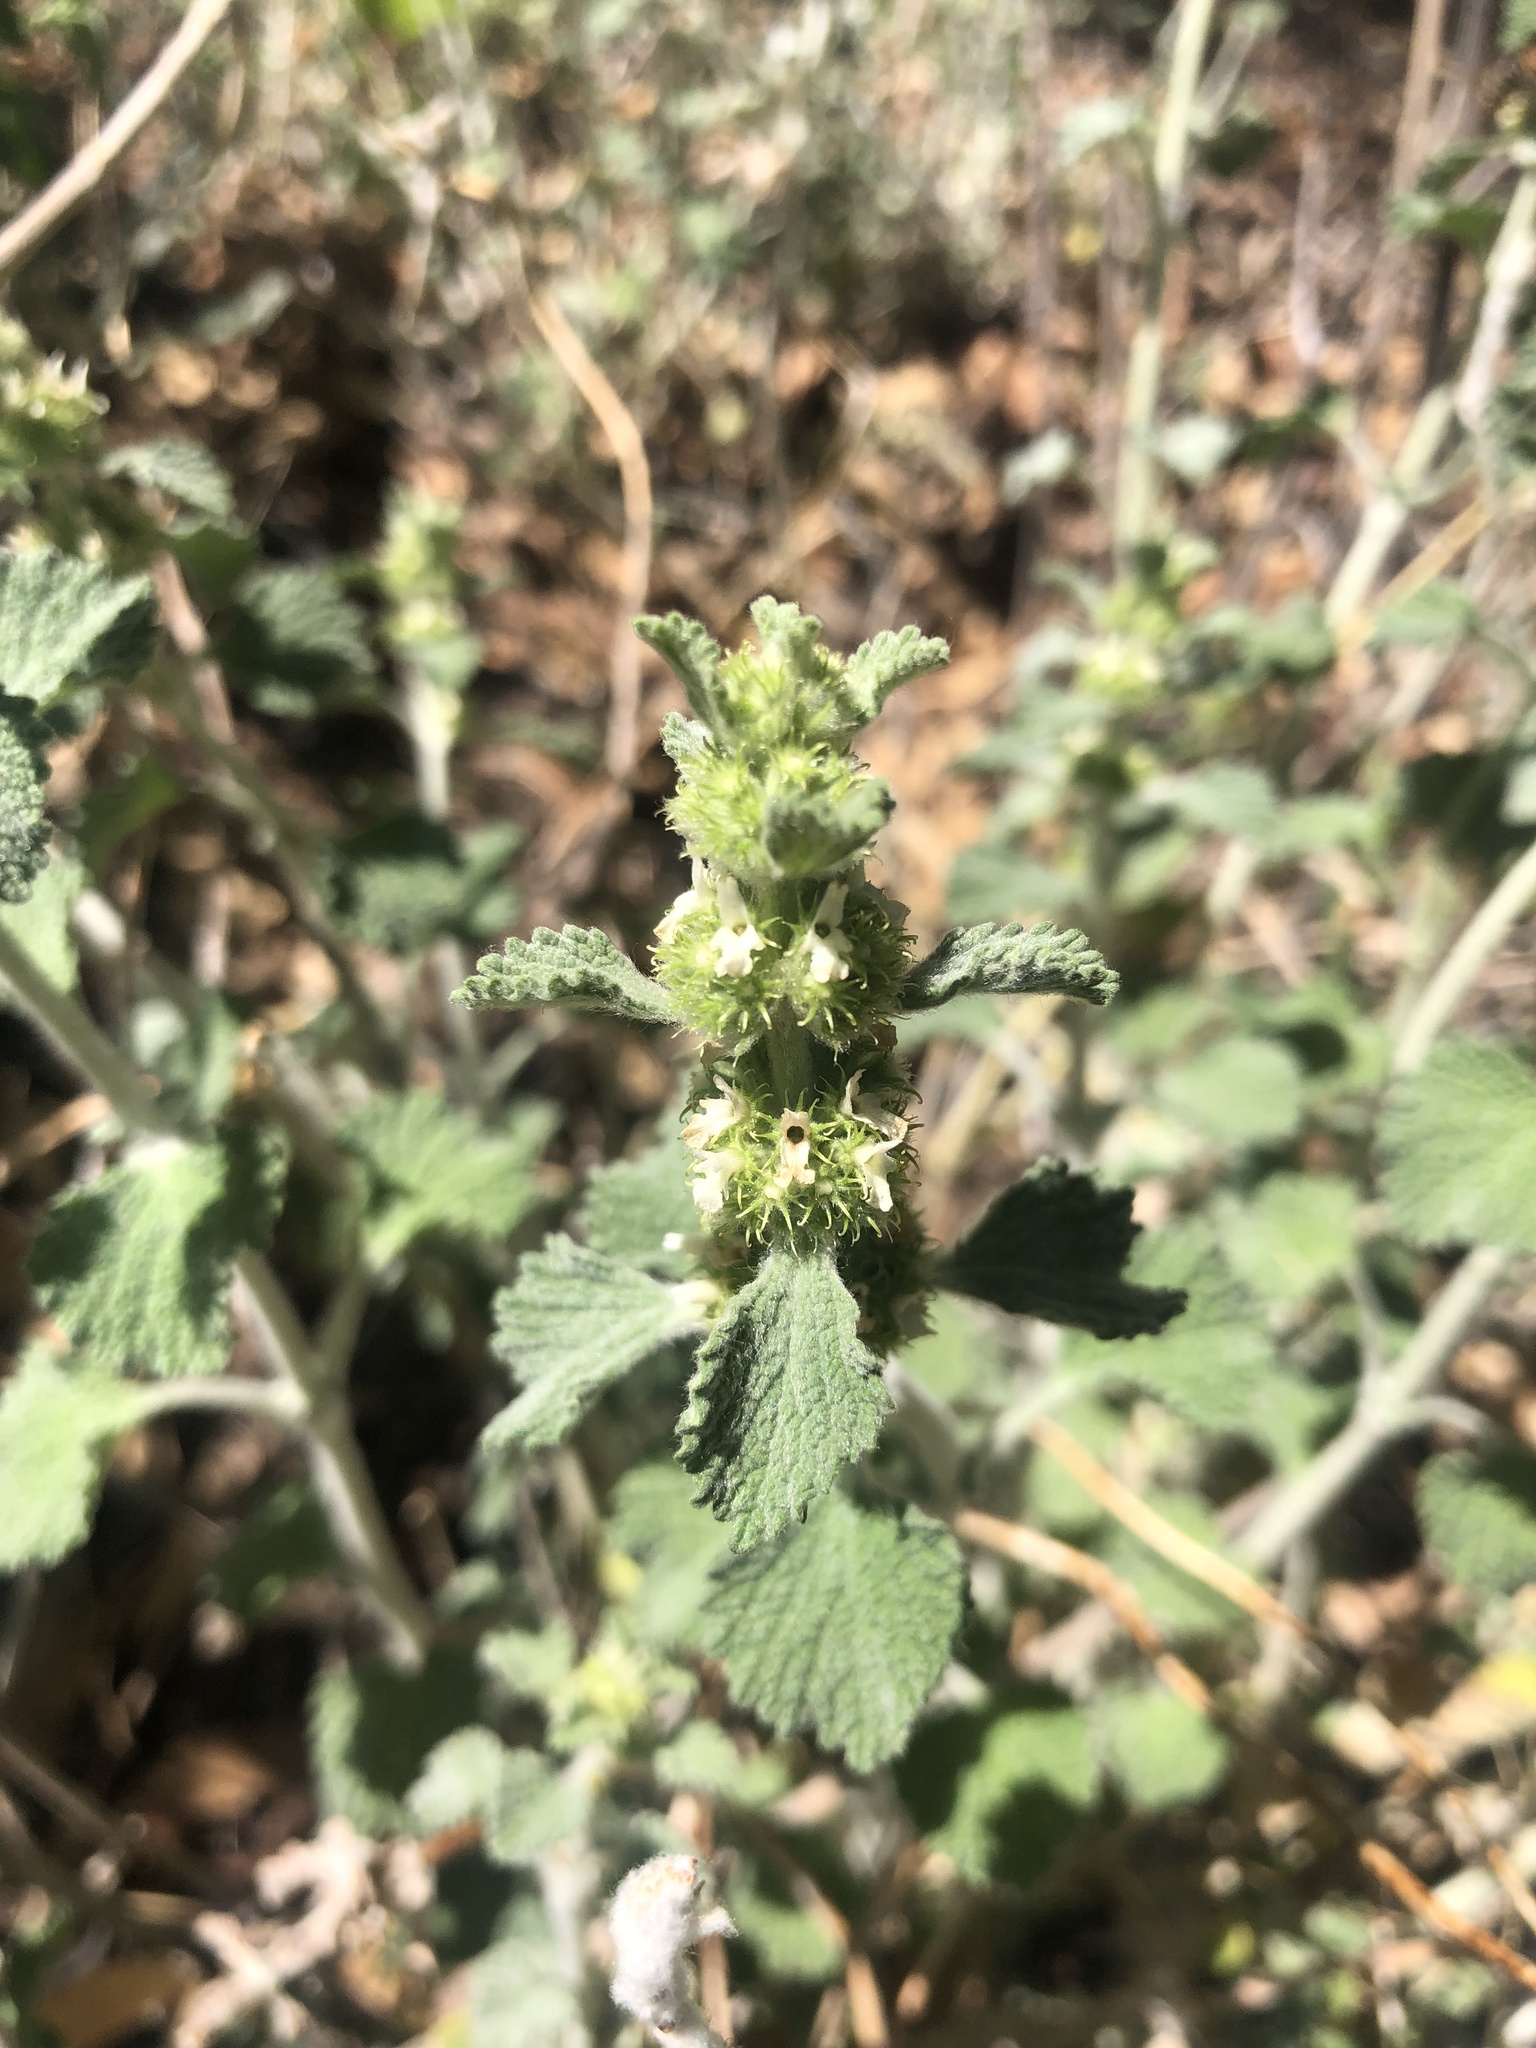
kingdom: Plantae
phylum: Tracheophyta
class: Magnoliopsida
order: Lamiales
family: Lamiaceae
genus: Marrubium
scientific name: Marrubium vulgare
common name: Horehound
